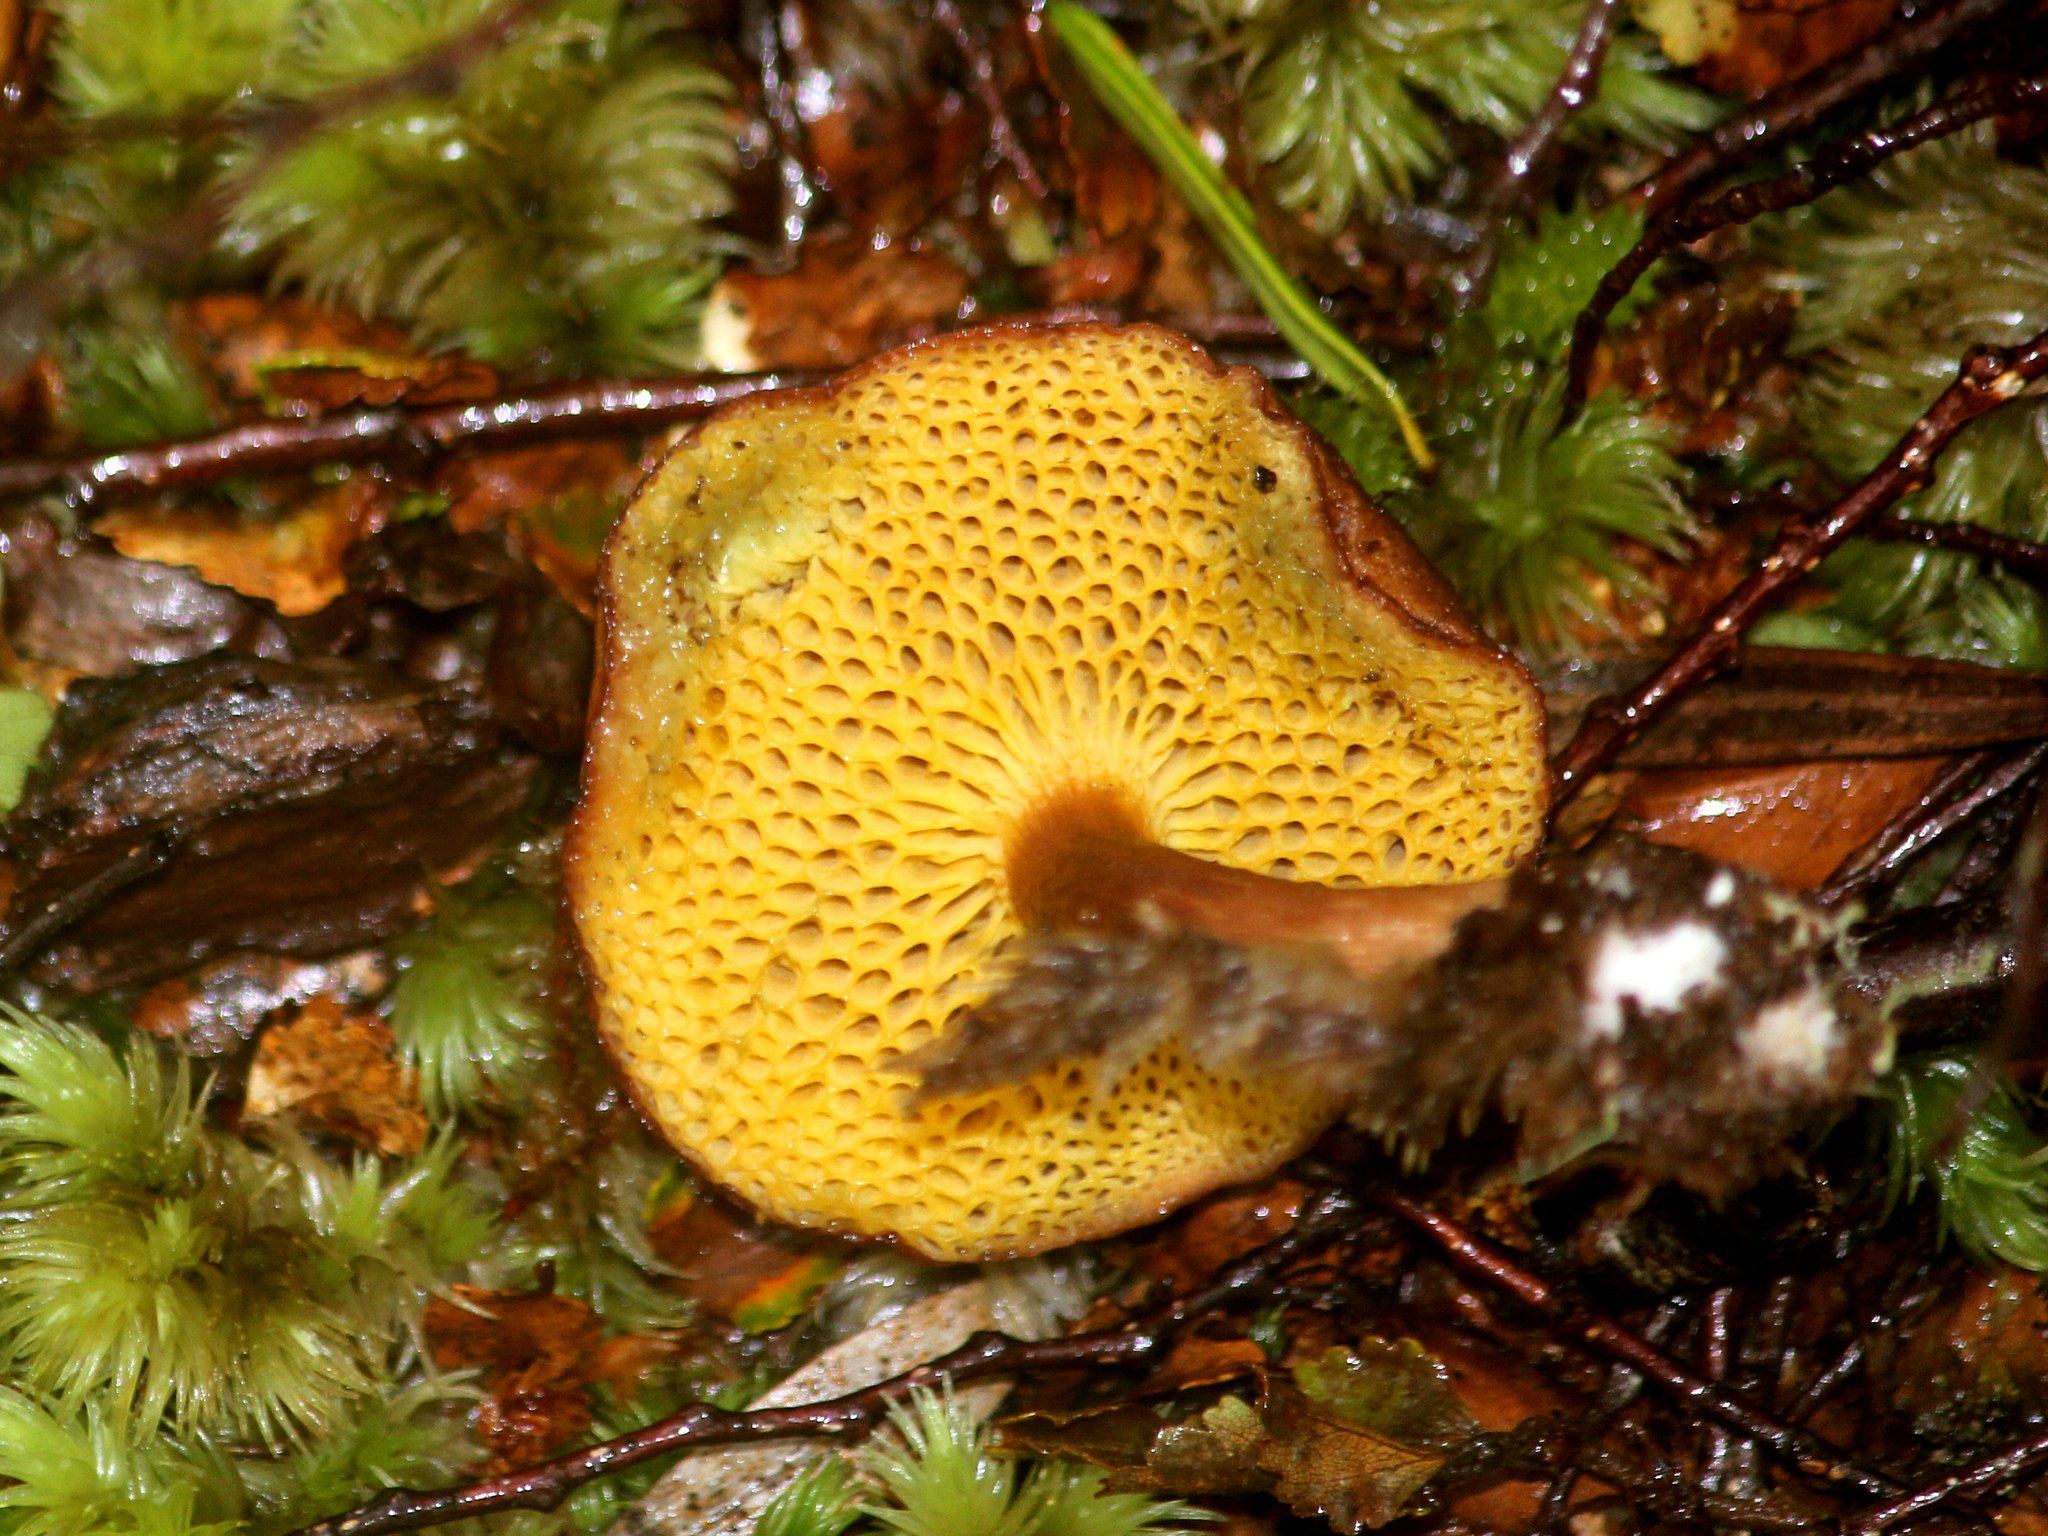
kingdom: Fungi
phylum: Basidiomycota
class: Agaricomycetes
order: Boletales
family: Boletaceae
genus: Xerocomus
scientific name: Xerocomus squamulosus
